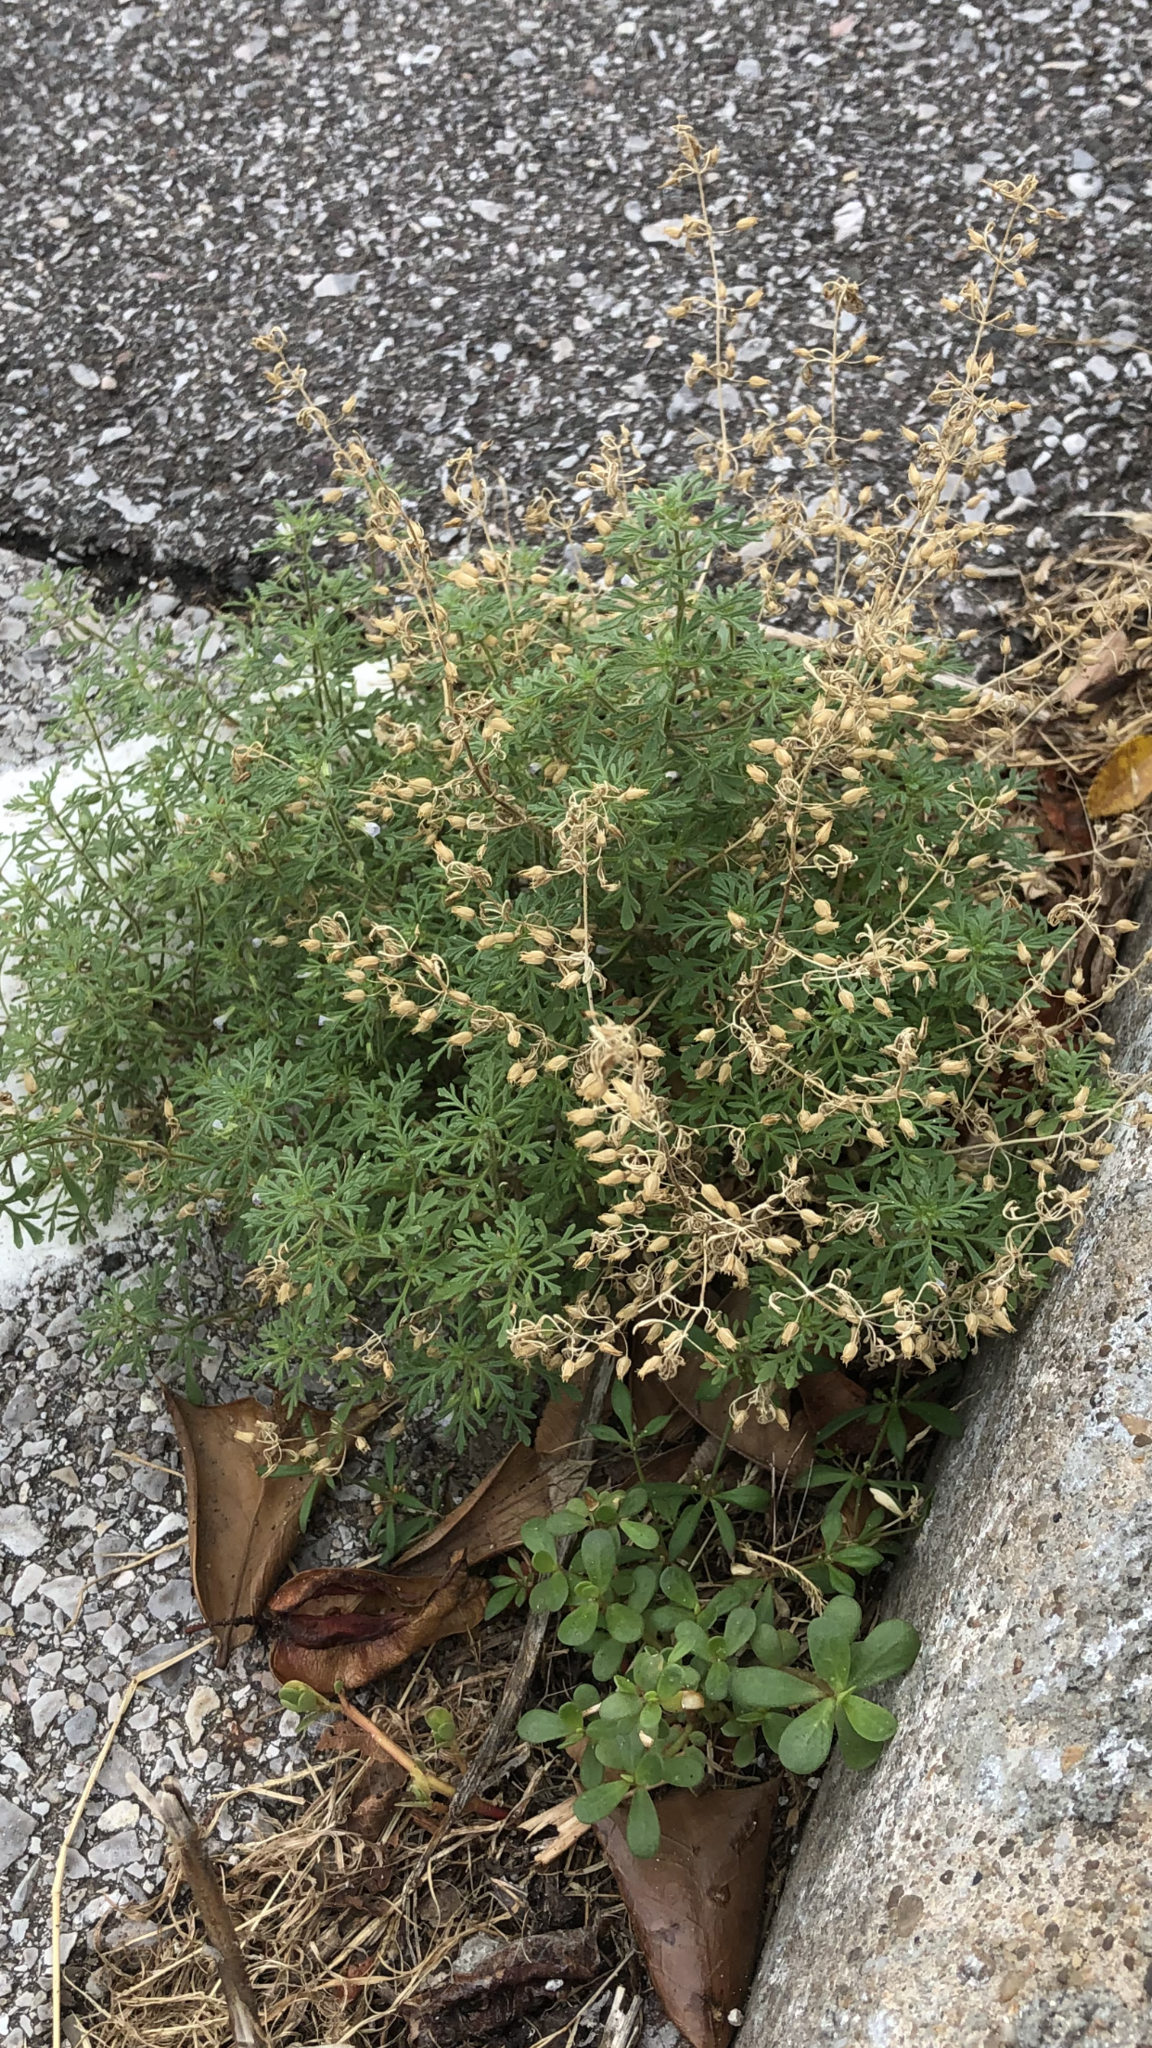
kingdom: Plantae
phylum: Tracheophyta
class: Magnoliopsida
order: Lamiales
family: Plantaginaceae
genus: Leucospora
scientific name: Leucospora multifida
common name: Narrow-leaf paleseed
